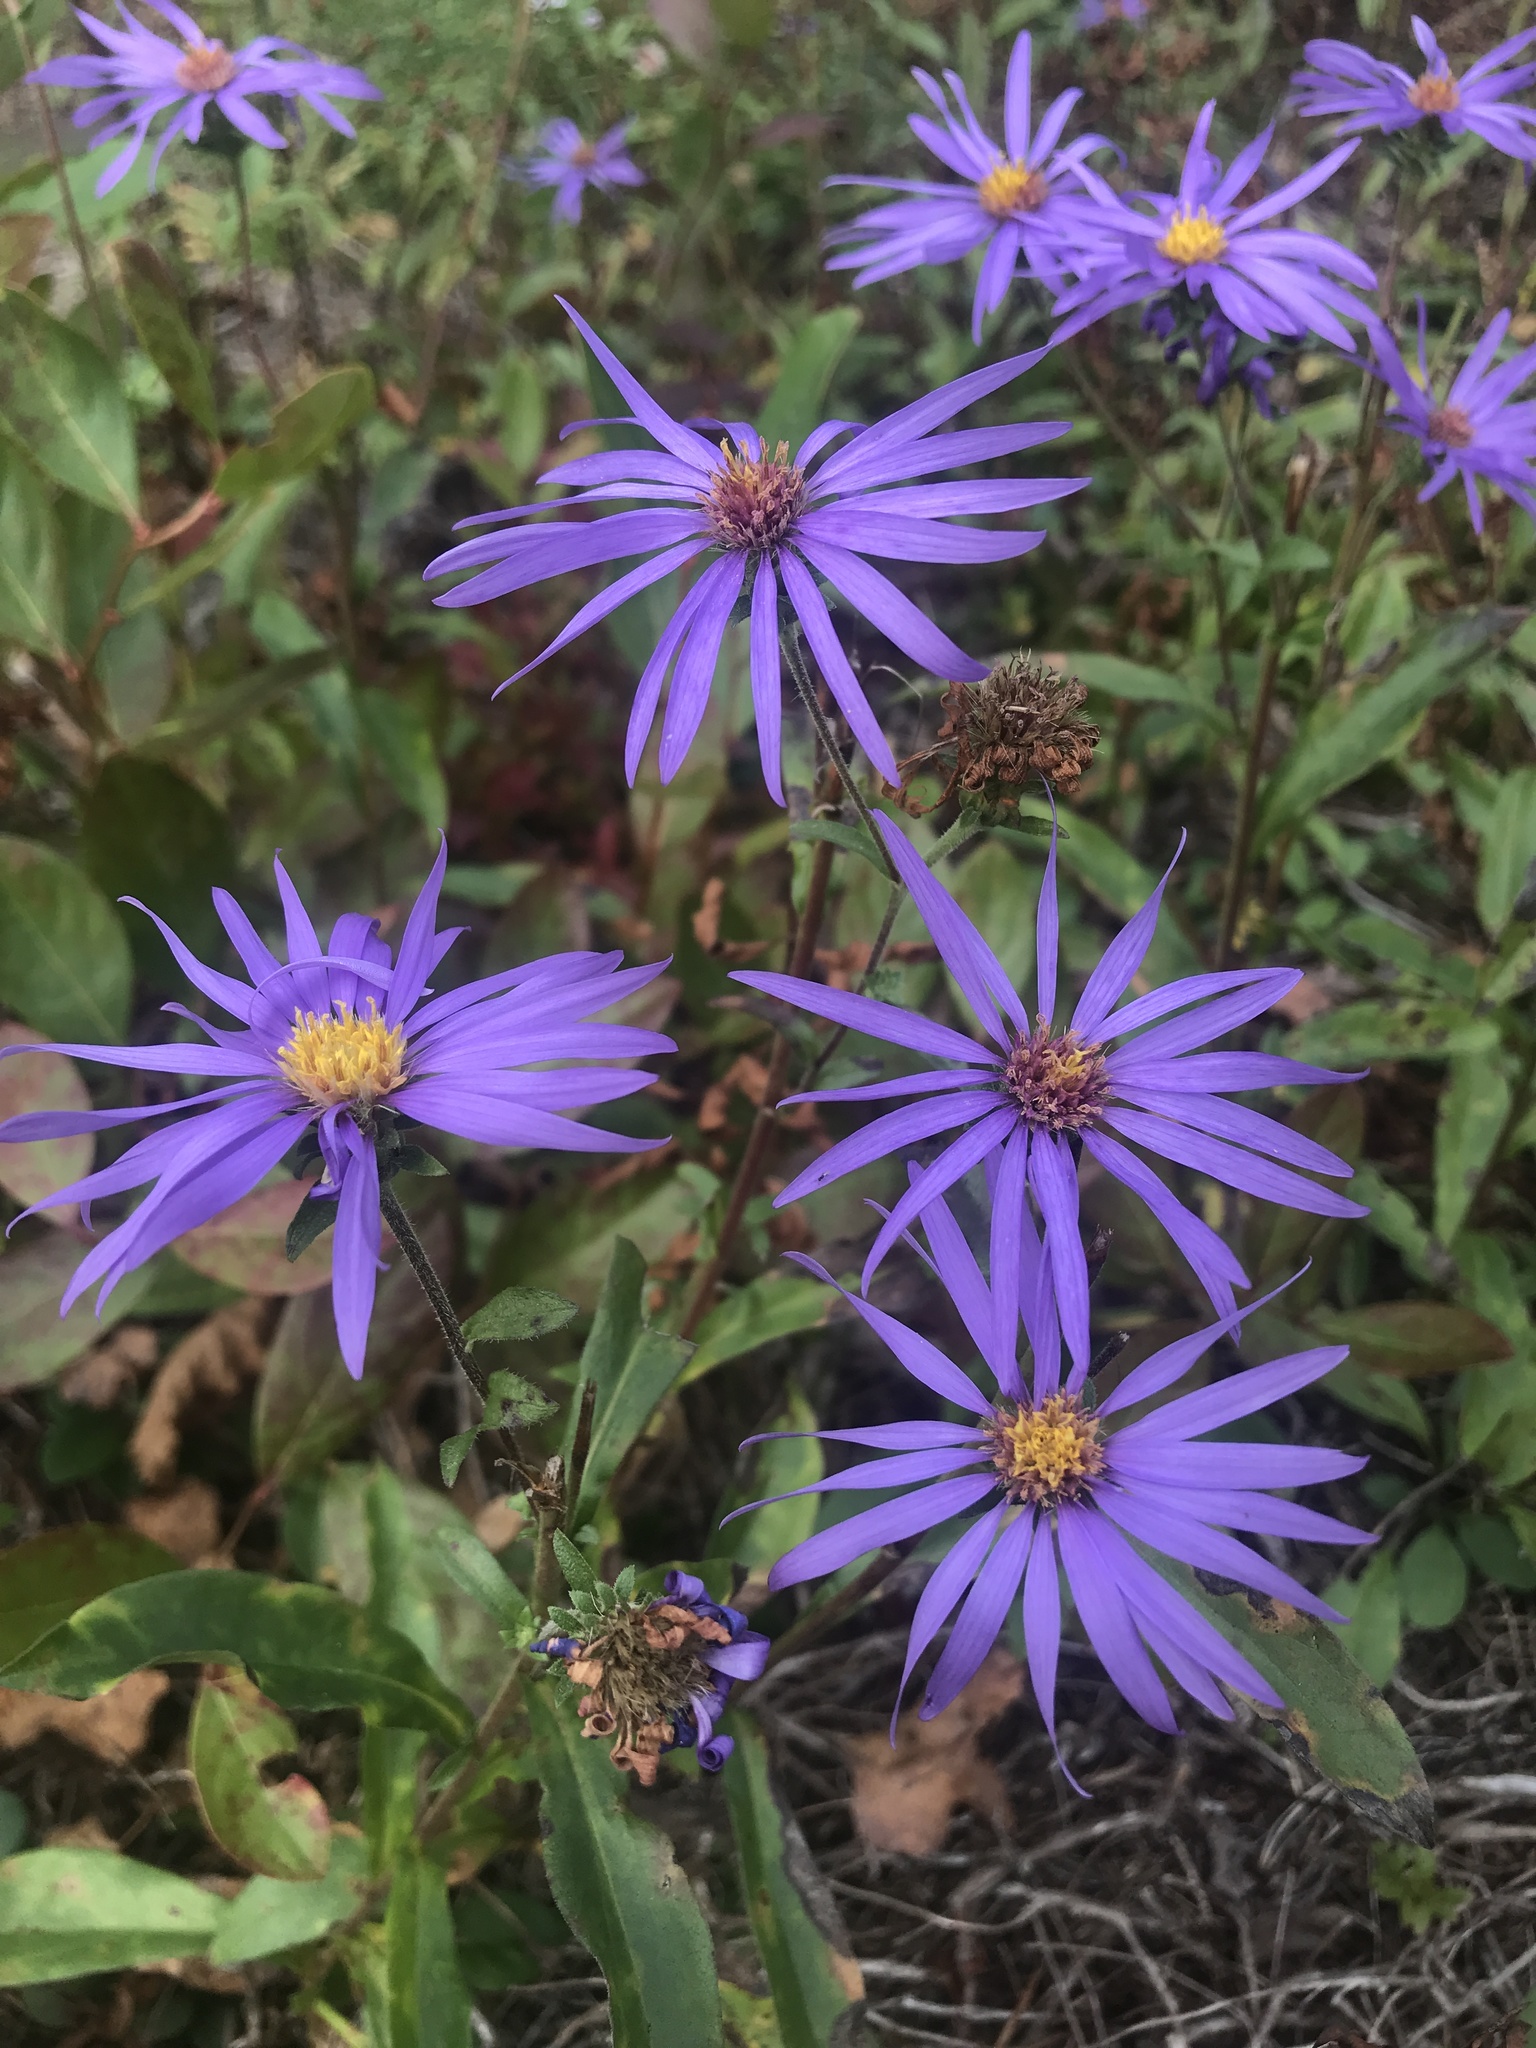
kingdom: Plantae
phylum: Tracheophyta
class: Magnoliopsida
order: Asterales
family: Asteraceae
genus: Eurybia
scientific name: Eurybia spectabilis
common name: Low showy aster
